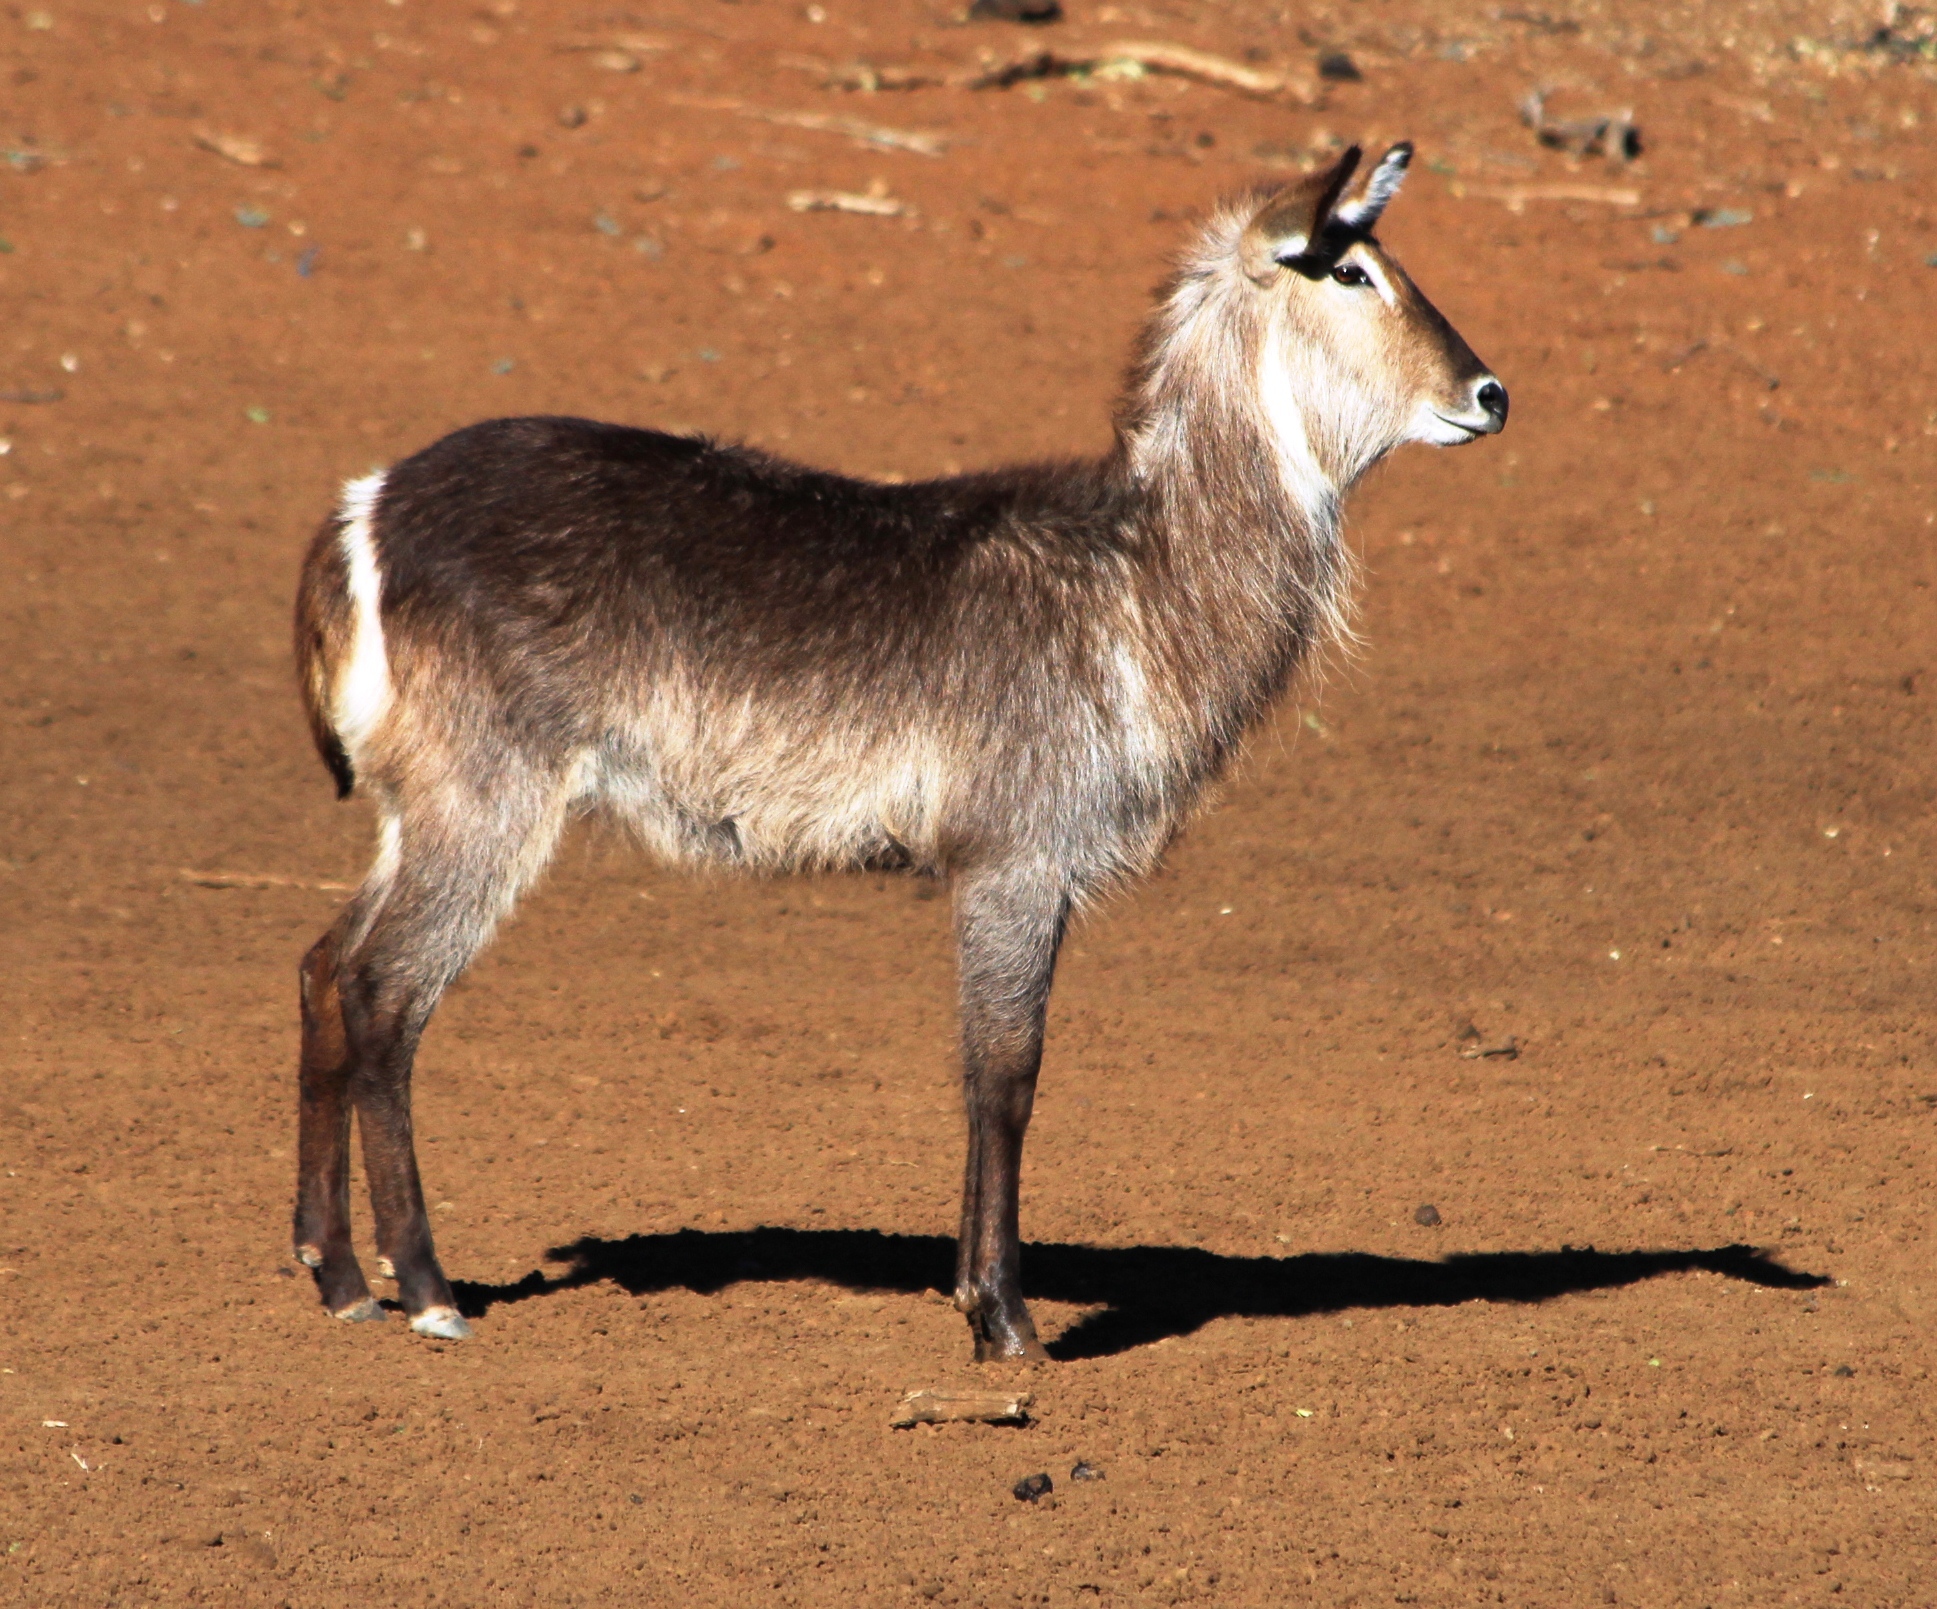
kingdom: Animalia
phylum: Chordata
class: Mammalia
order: Artiodactyla
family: Bovidae
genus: Kobus
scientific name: Kobus ellipsiprymnus
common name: Waterbuck
